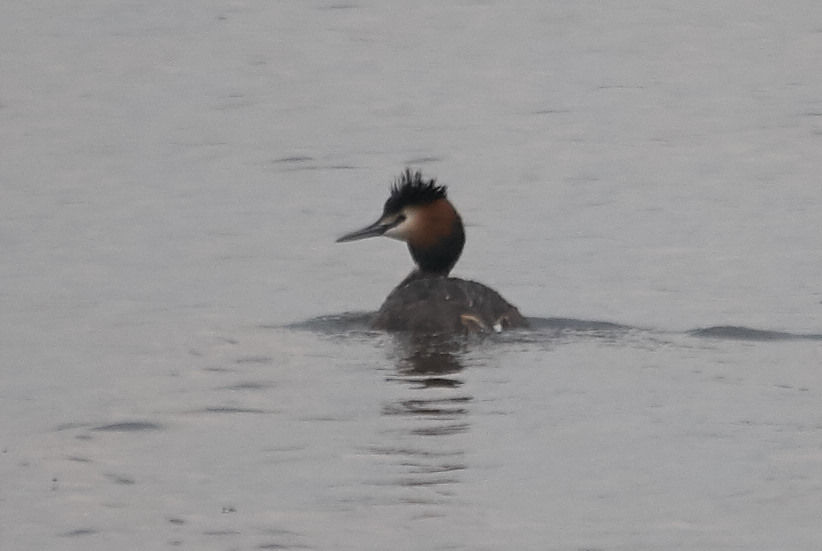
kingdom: Animalia
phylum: Chordata
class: Aves
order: Podicipediformes
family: Podicipedidae
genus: Podiceps
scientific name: Podiceps cristatus
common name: Great crested grebe
